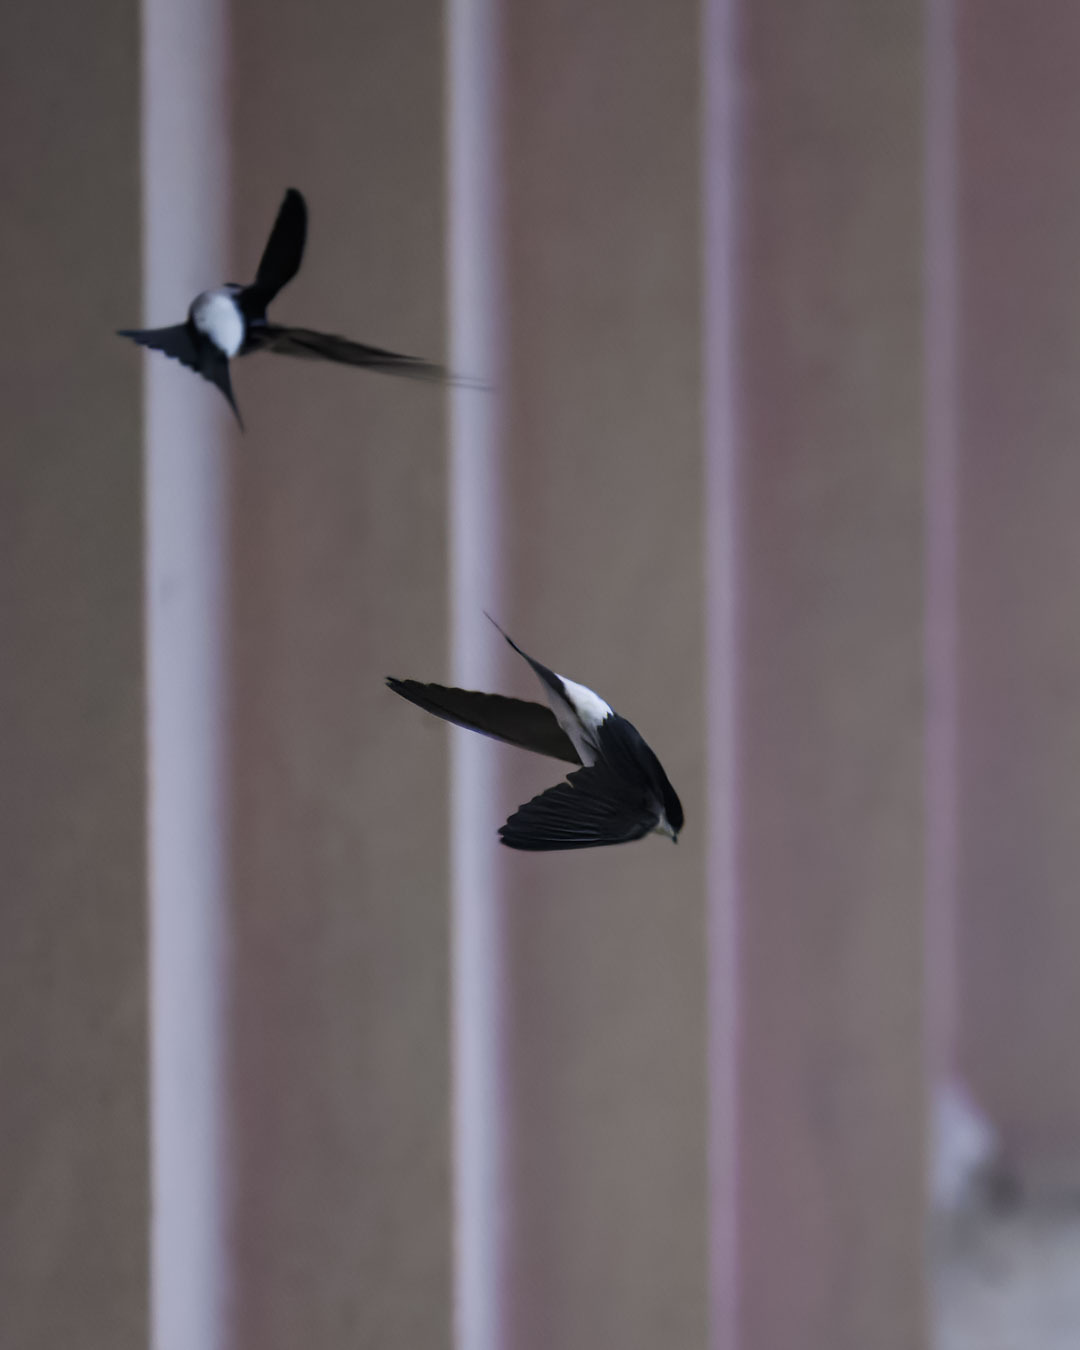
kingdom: Animalia
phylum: Chordata
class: Aves
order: Passeriformes
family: Hirundinidae
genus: Delichon
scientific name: Delichon urbicum
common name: Common house martin
